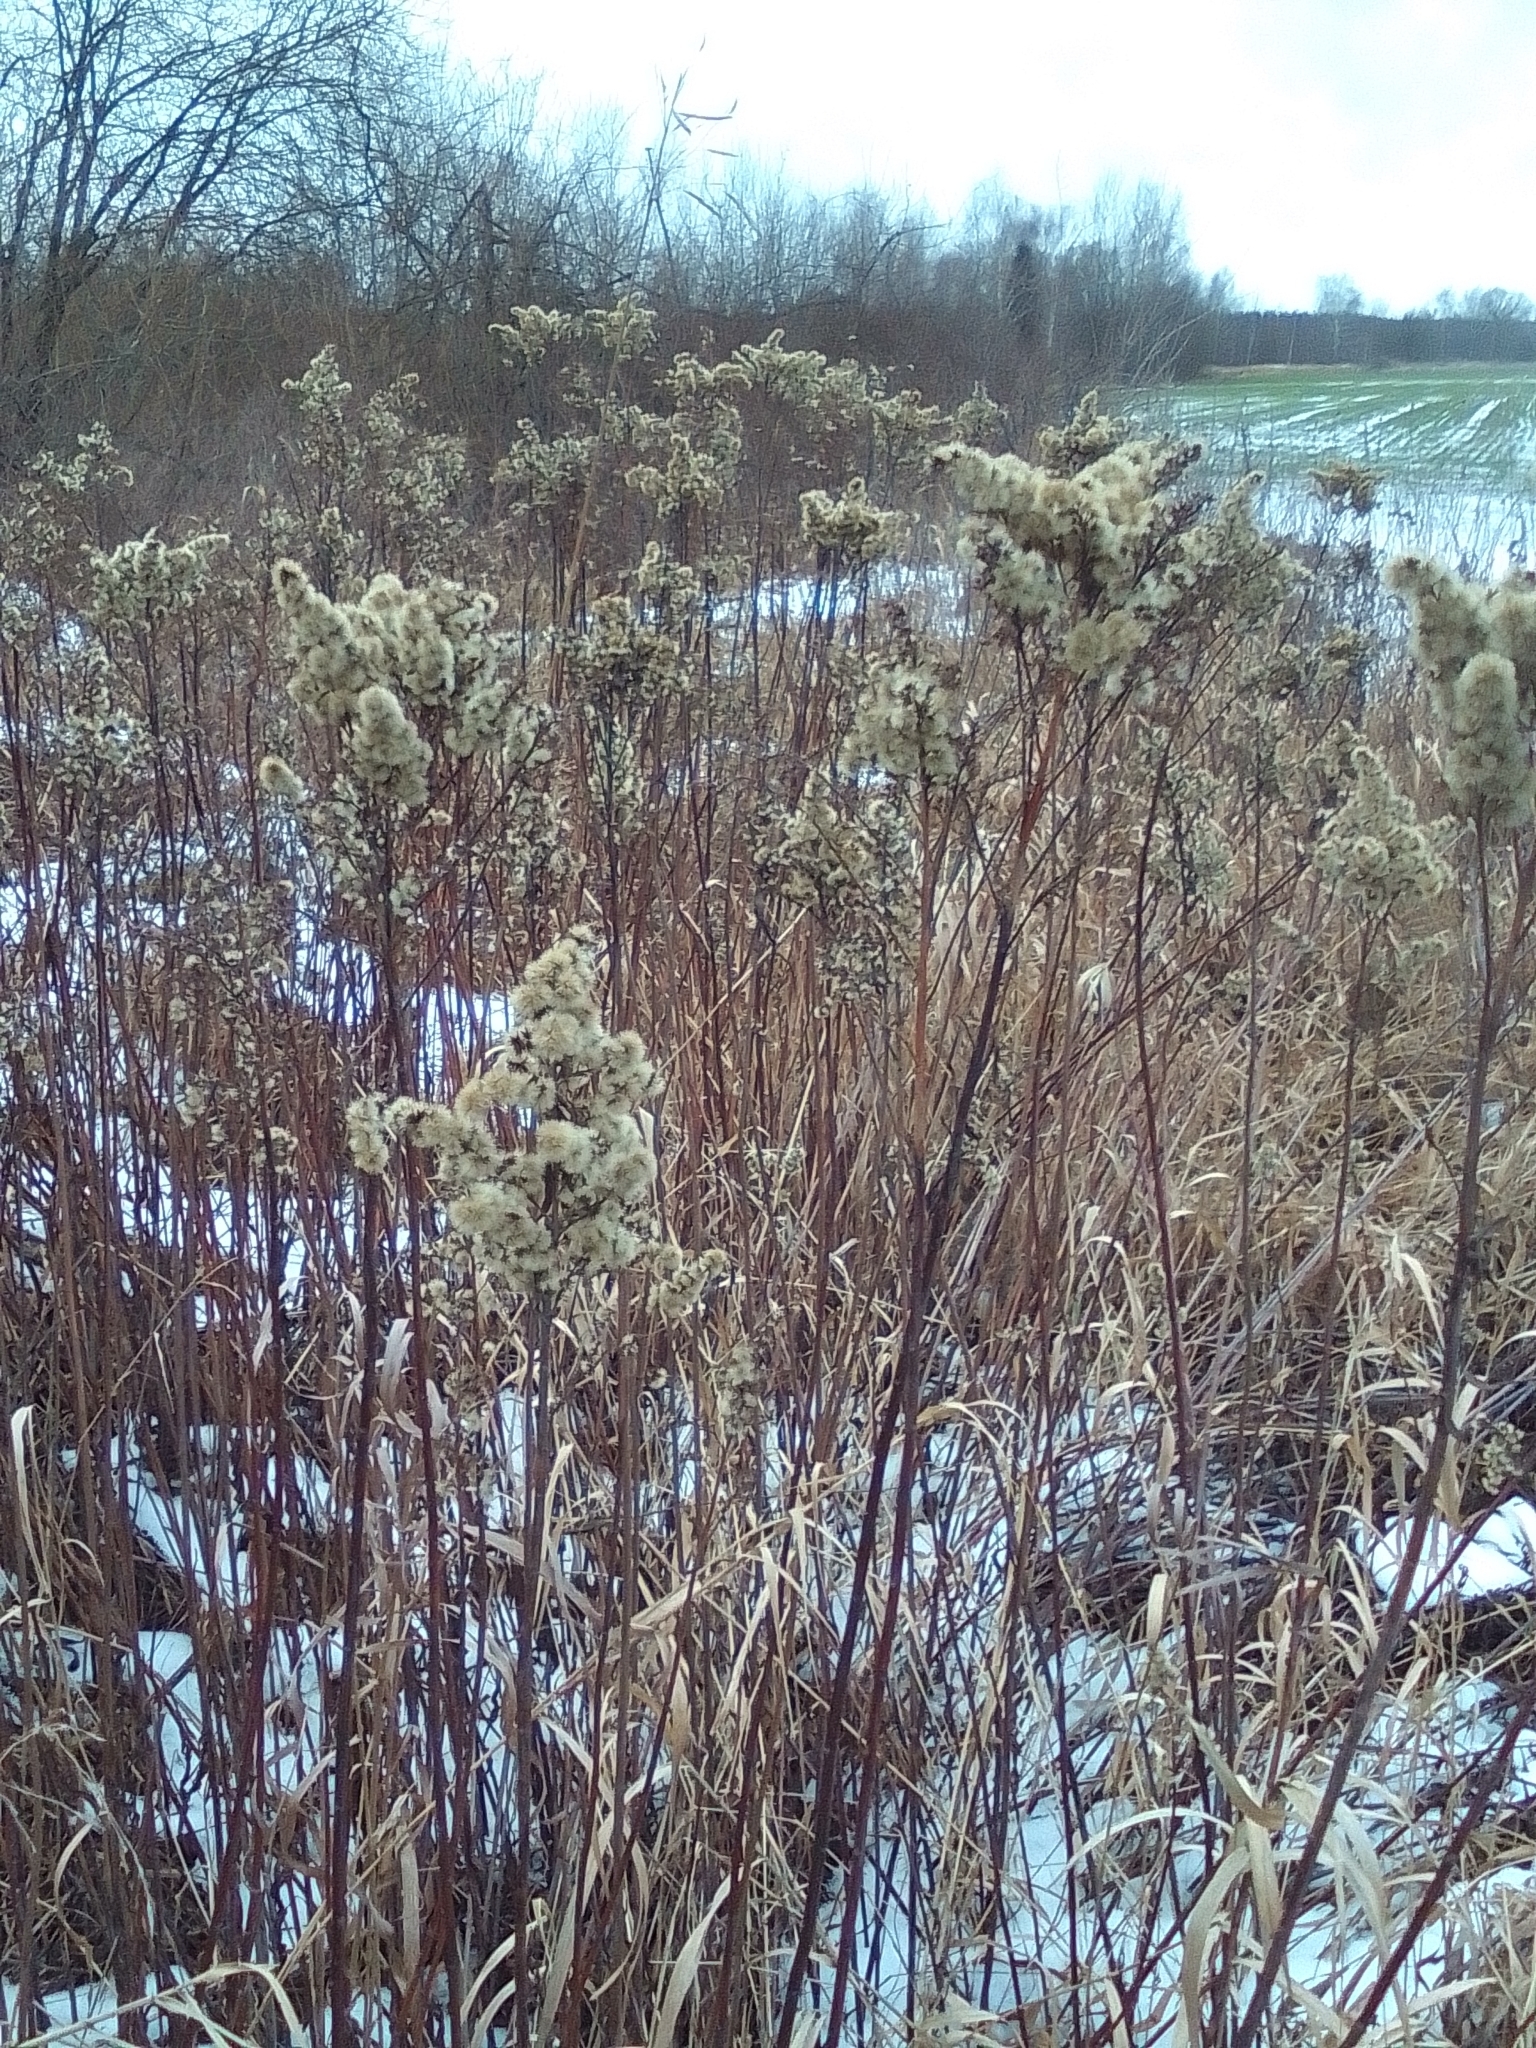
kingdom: Plantae
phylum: Tracheophyta
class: Magnoliopsida
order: Asterales
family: Asteraceae
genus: Solidago
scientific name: Solidago gigantea
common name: Giant goldenrod
